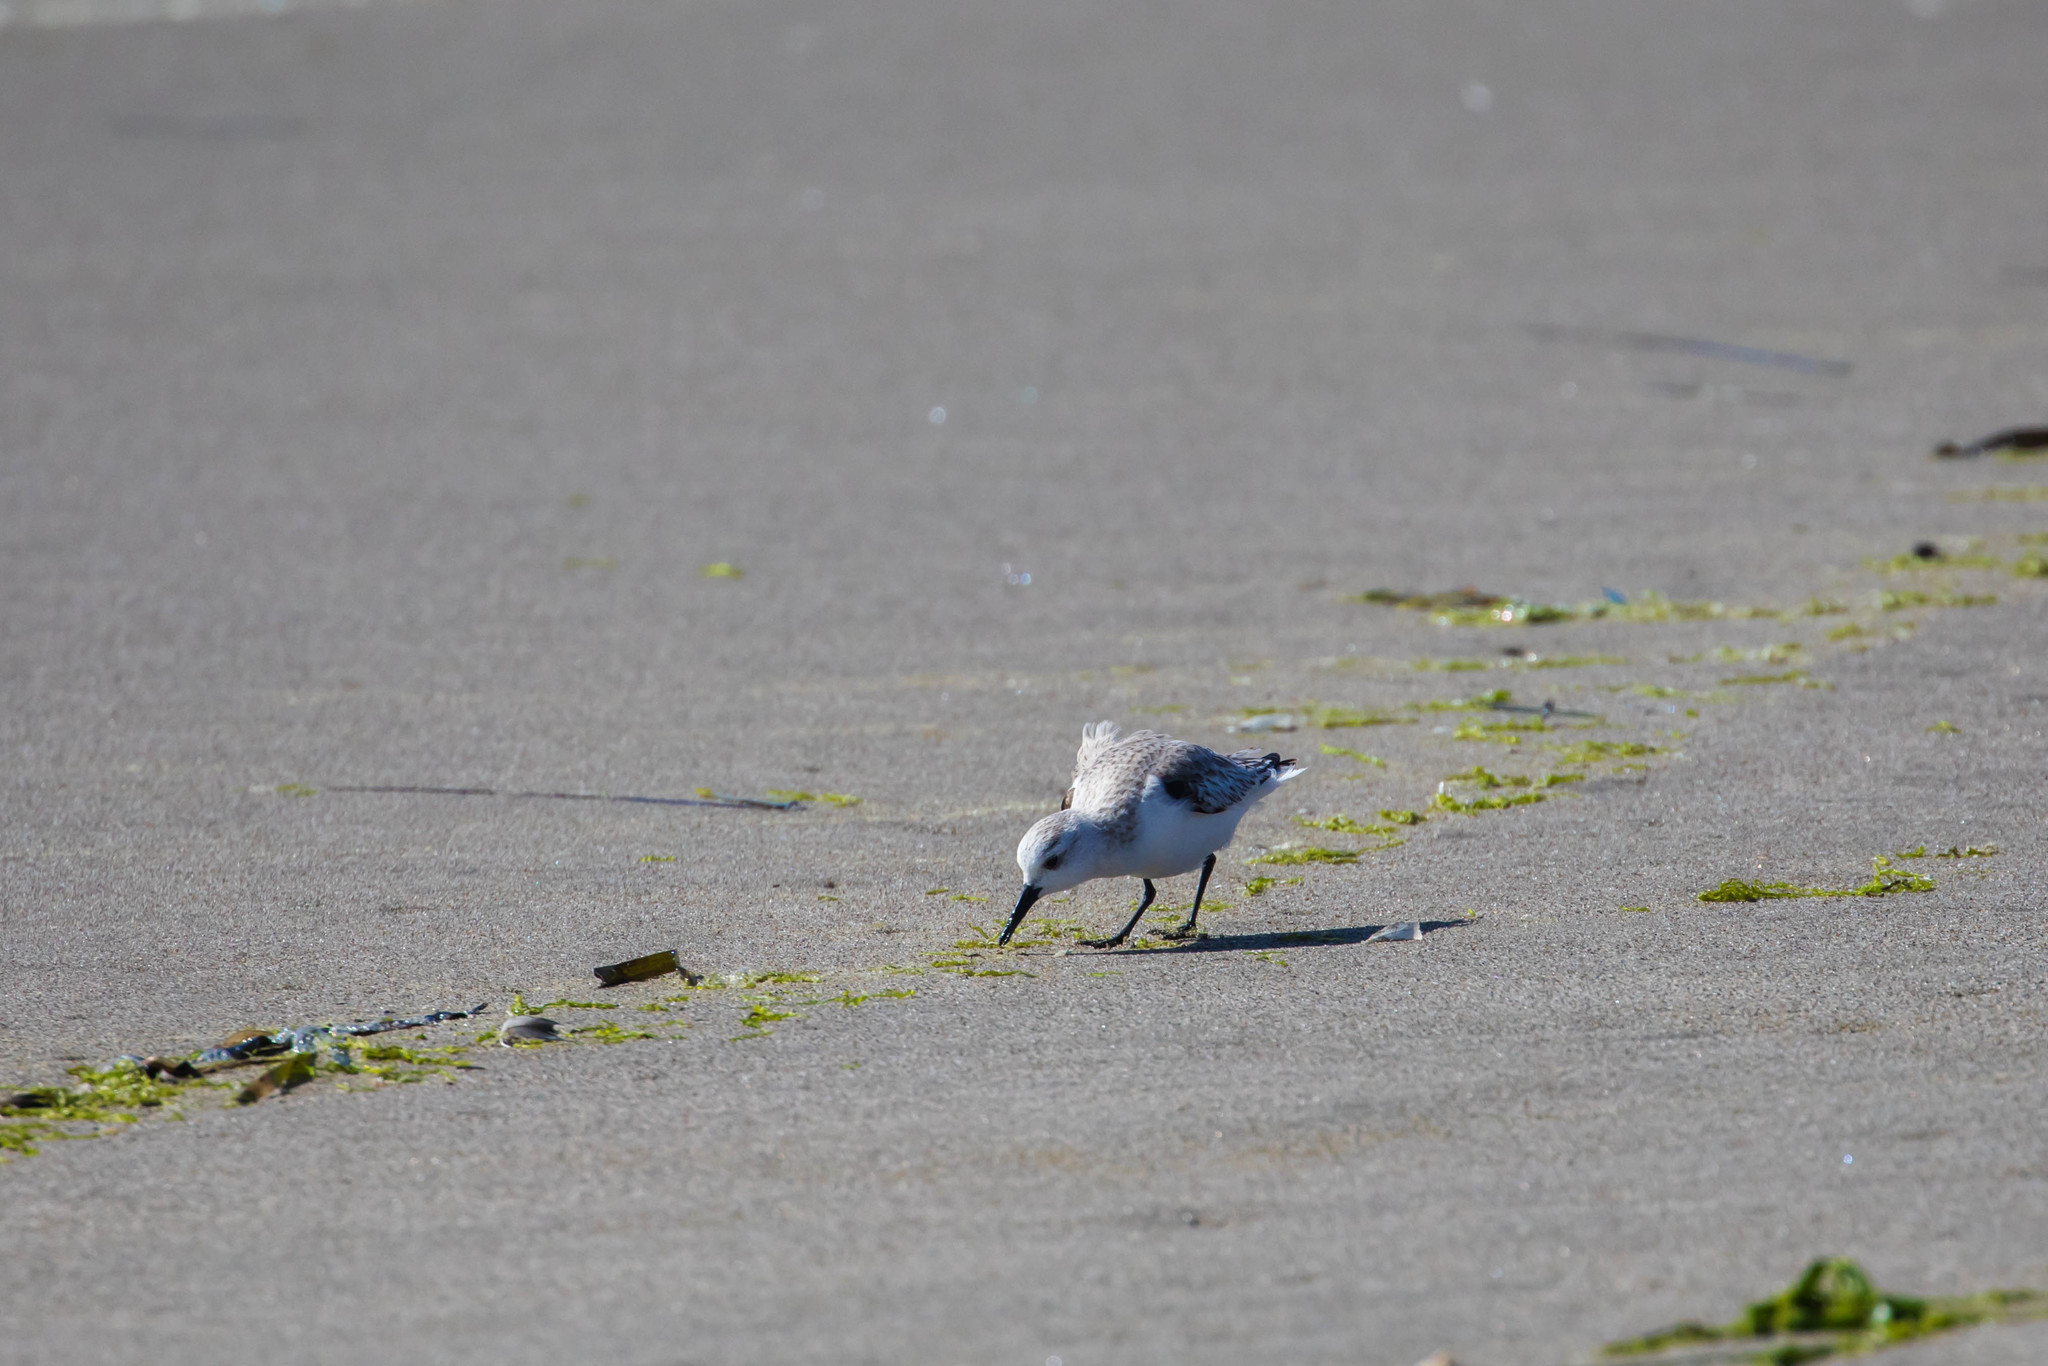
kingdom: Animalia
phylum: Chordata
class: Aves
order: Charadriiformes
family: Scolopacidae
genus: Calidris
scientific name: Calidris alba
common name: Sanderling
